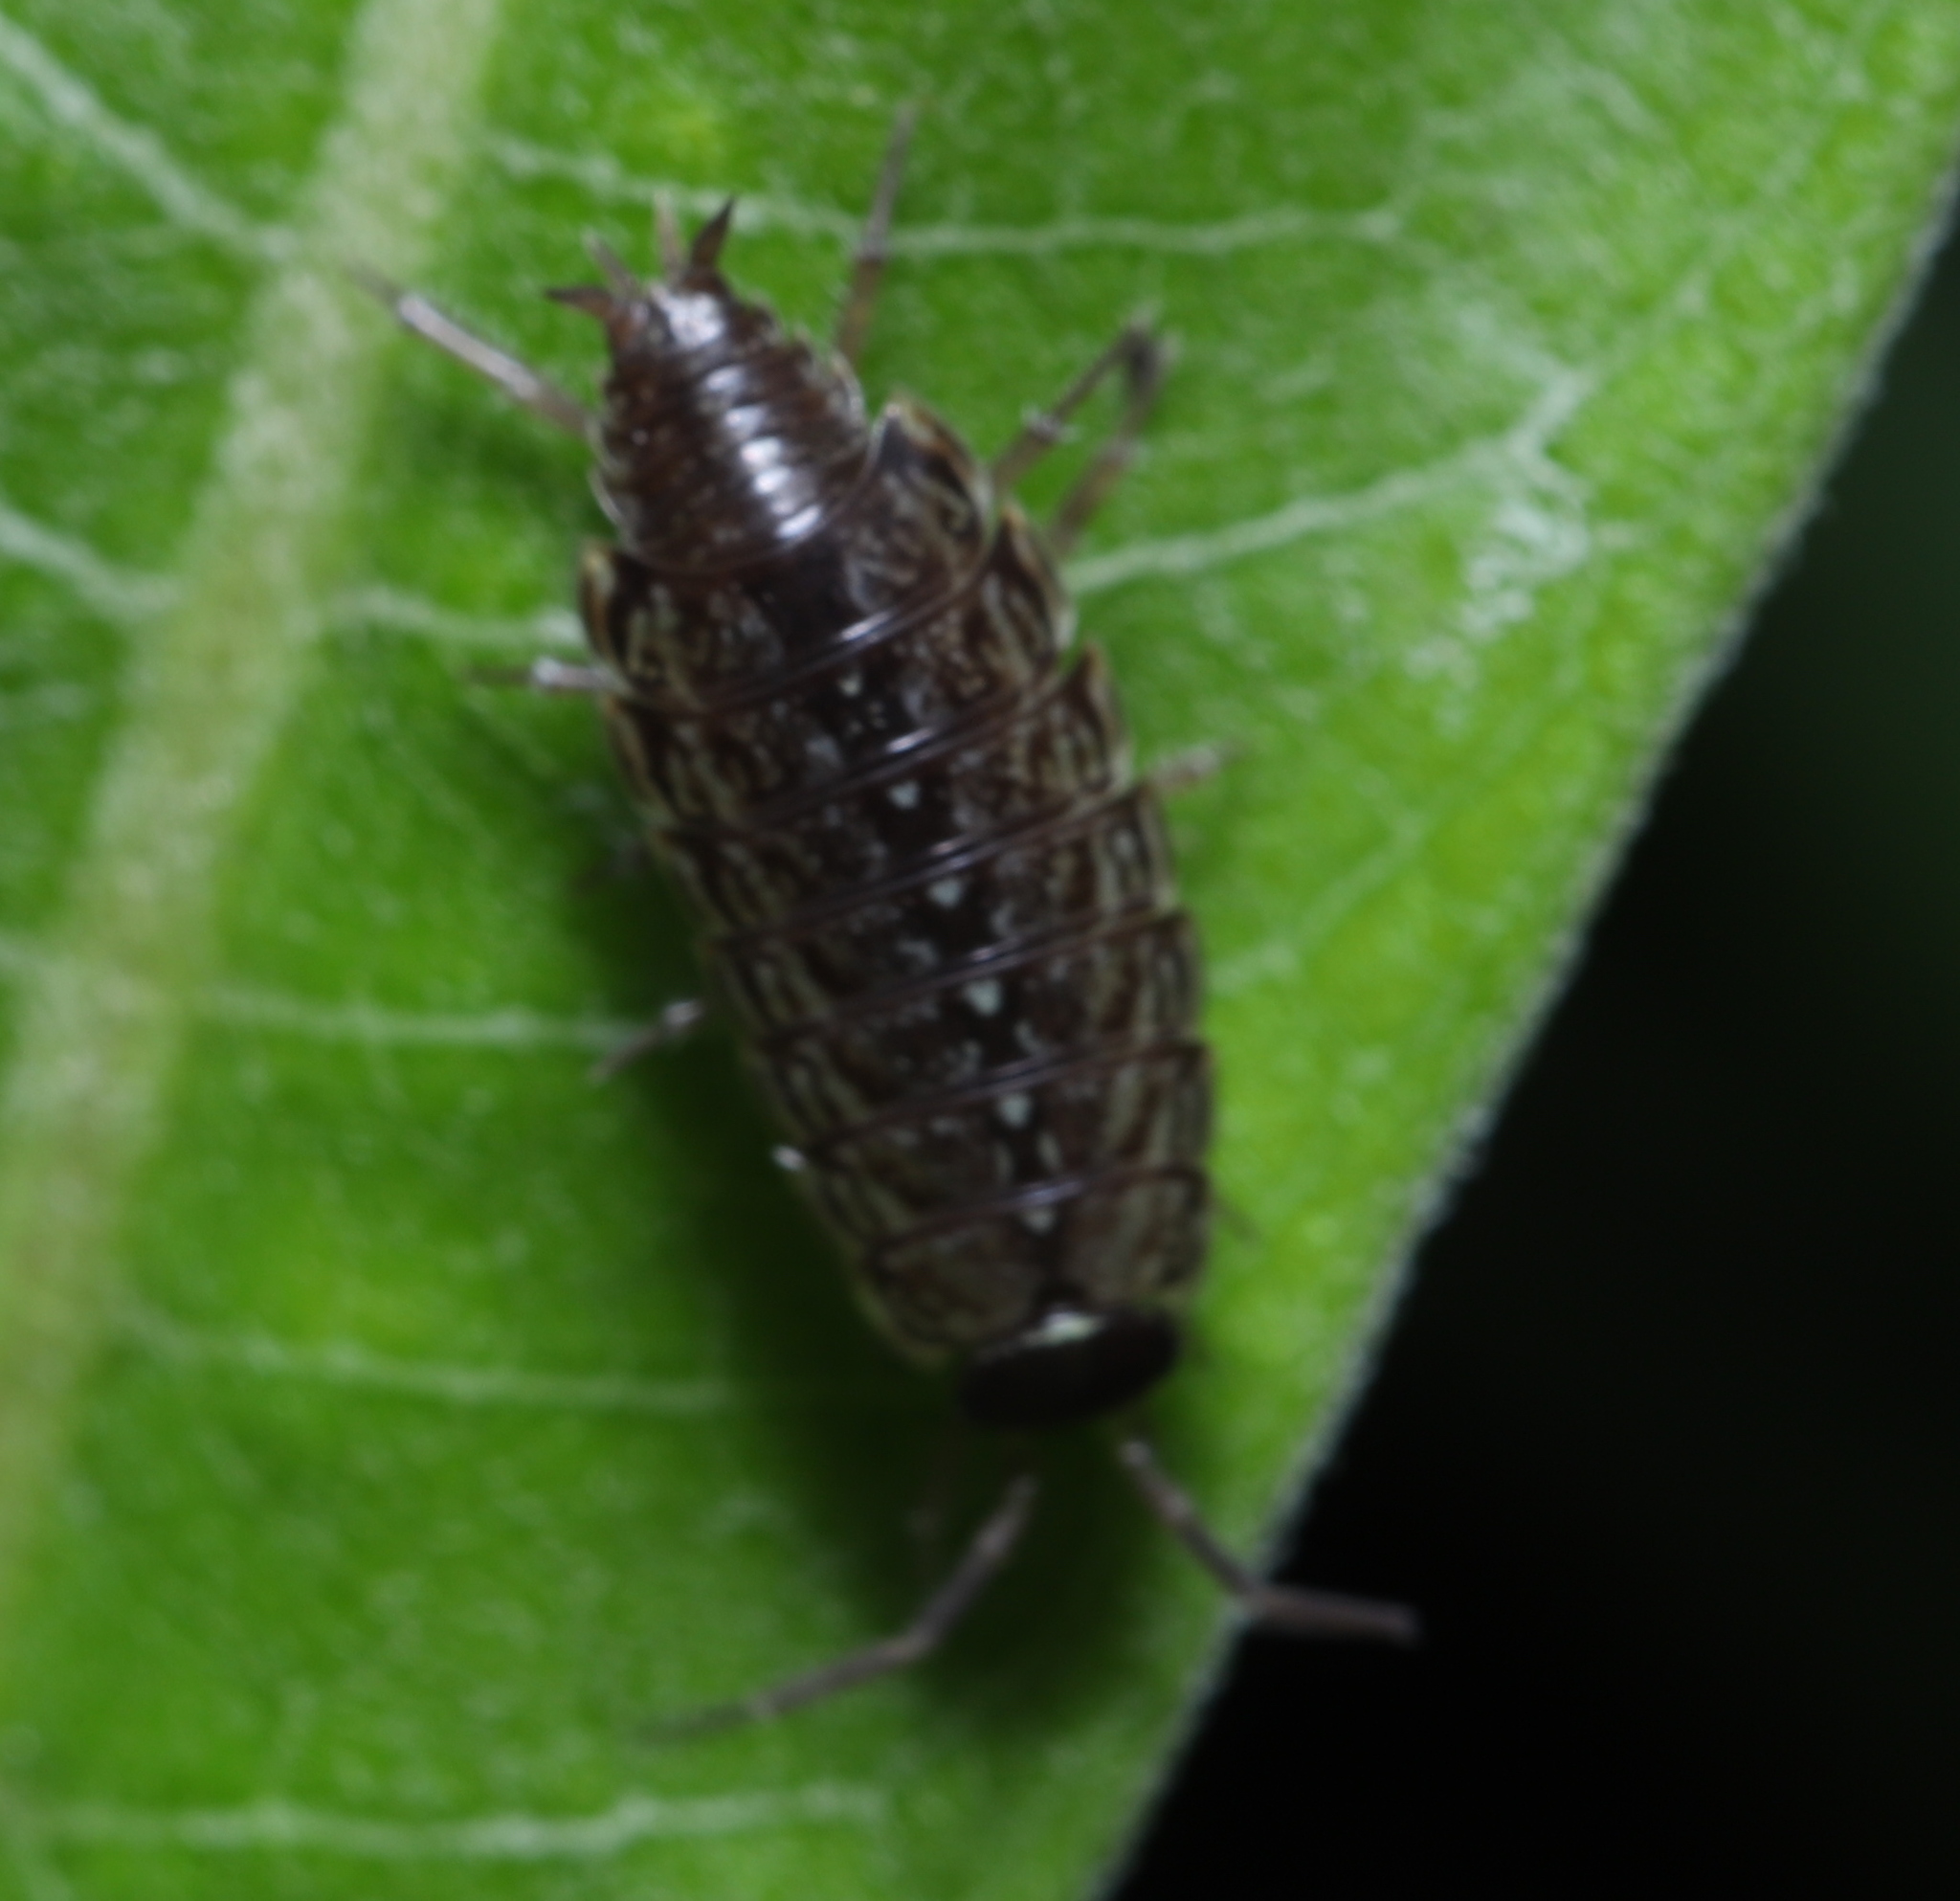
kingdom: Animalia
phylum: Arthropoda
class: Malacostraca
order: Isopoda
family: Philosciidae
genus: Philoscia
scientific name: Philoscia muscorum
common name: Common striped woodlouse
